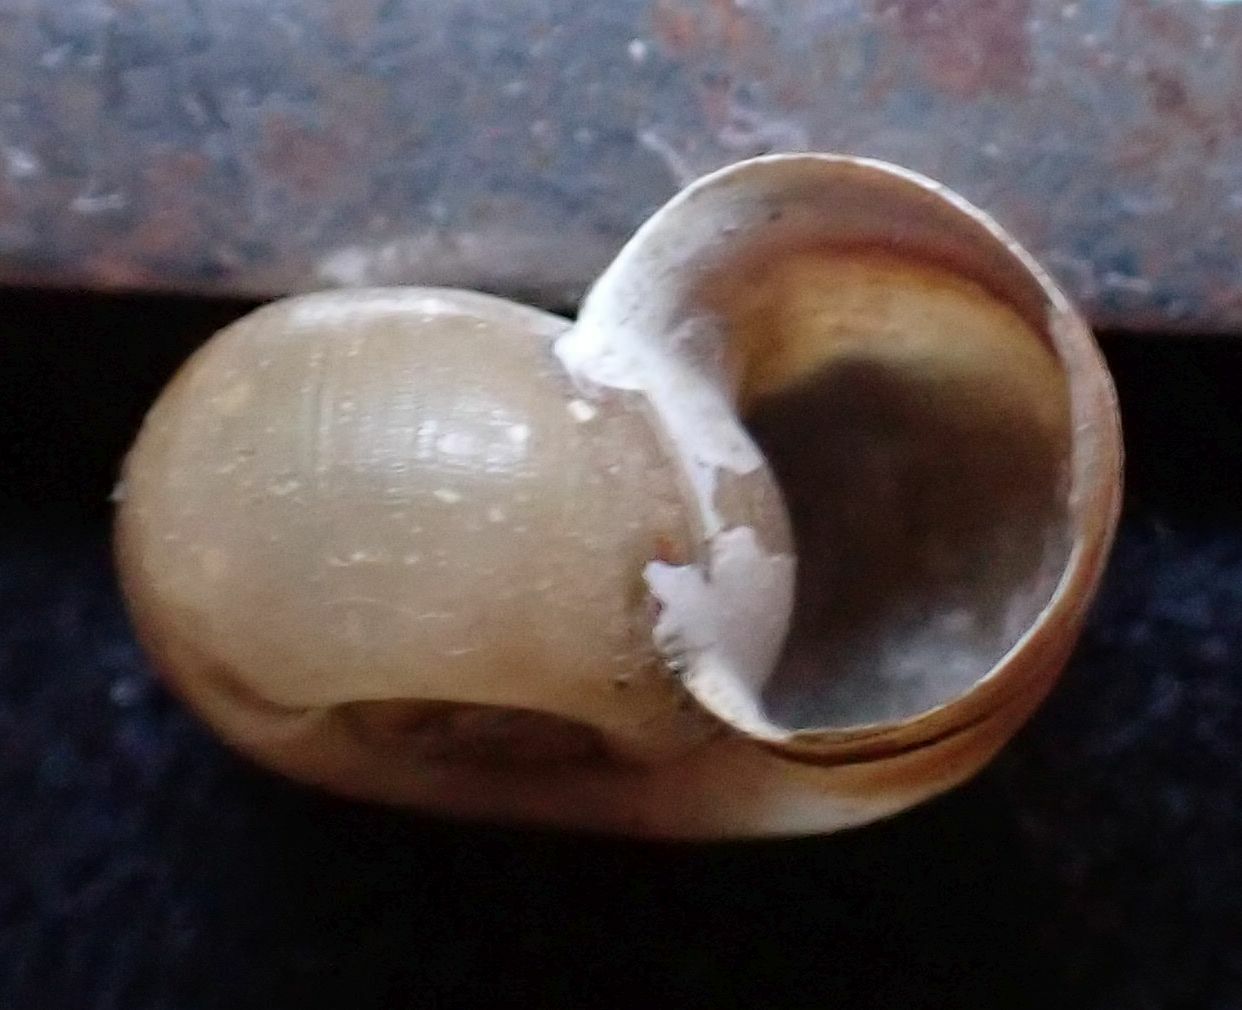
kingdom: Animalia
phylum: Mollusca
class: Gastropoda
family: Planorbidae
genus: Planorbarius
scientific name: Planorbarius corneus
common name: Great ramshorn
